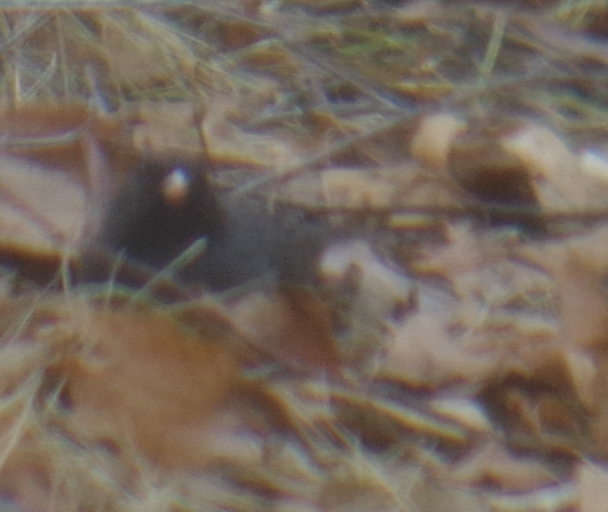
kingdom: Animalia
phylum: Chordata
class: Aves
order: Passeriformes
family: Passerellidae
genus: Junco
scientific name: Junco hyemalis
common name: Dark-eyed junco
